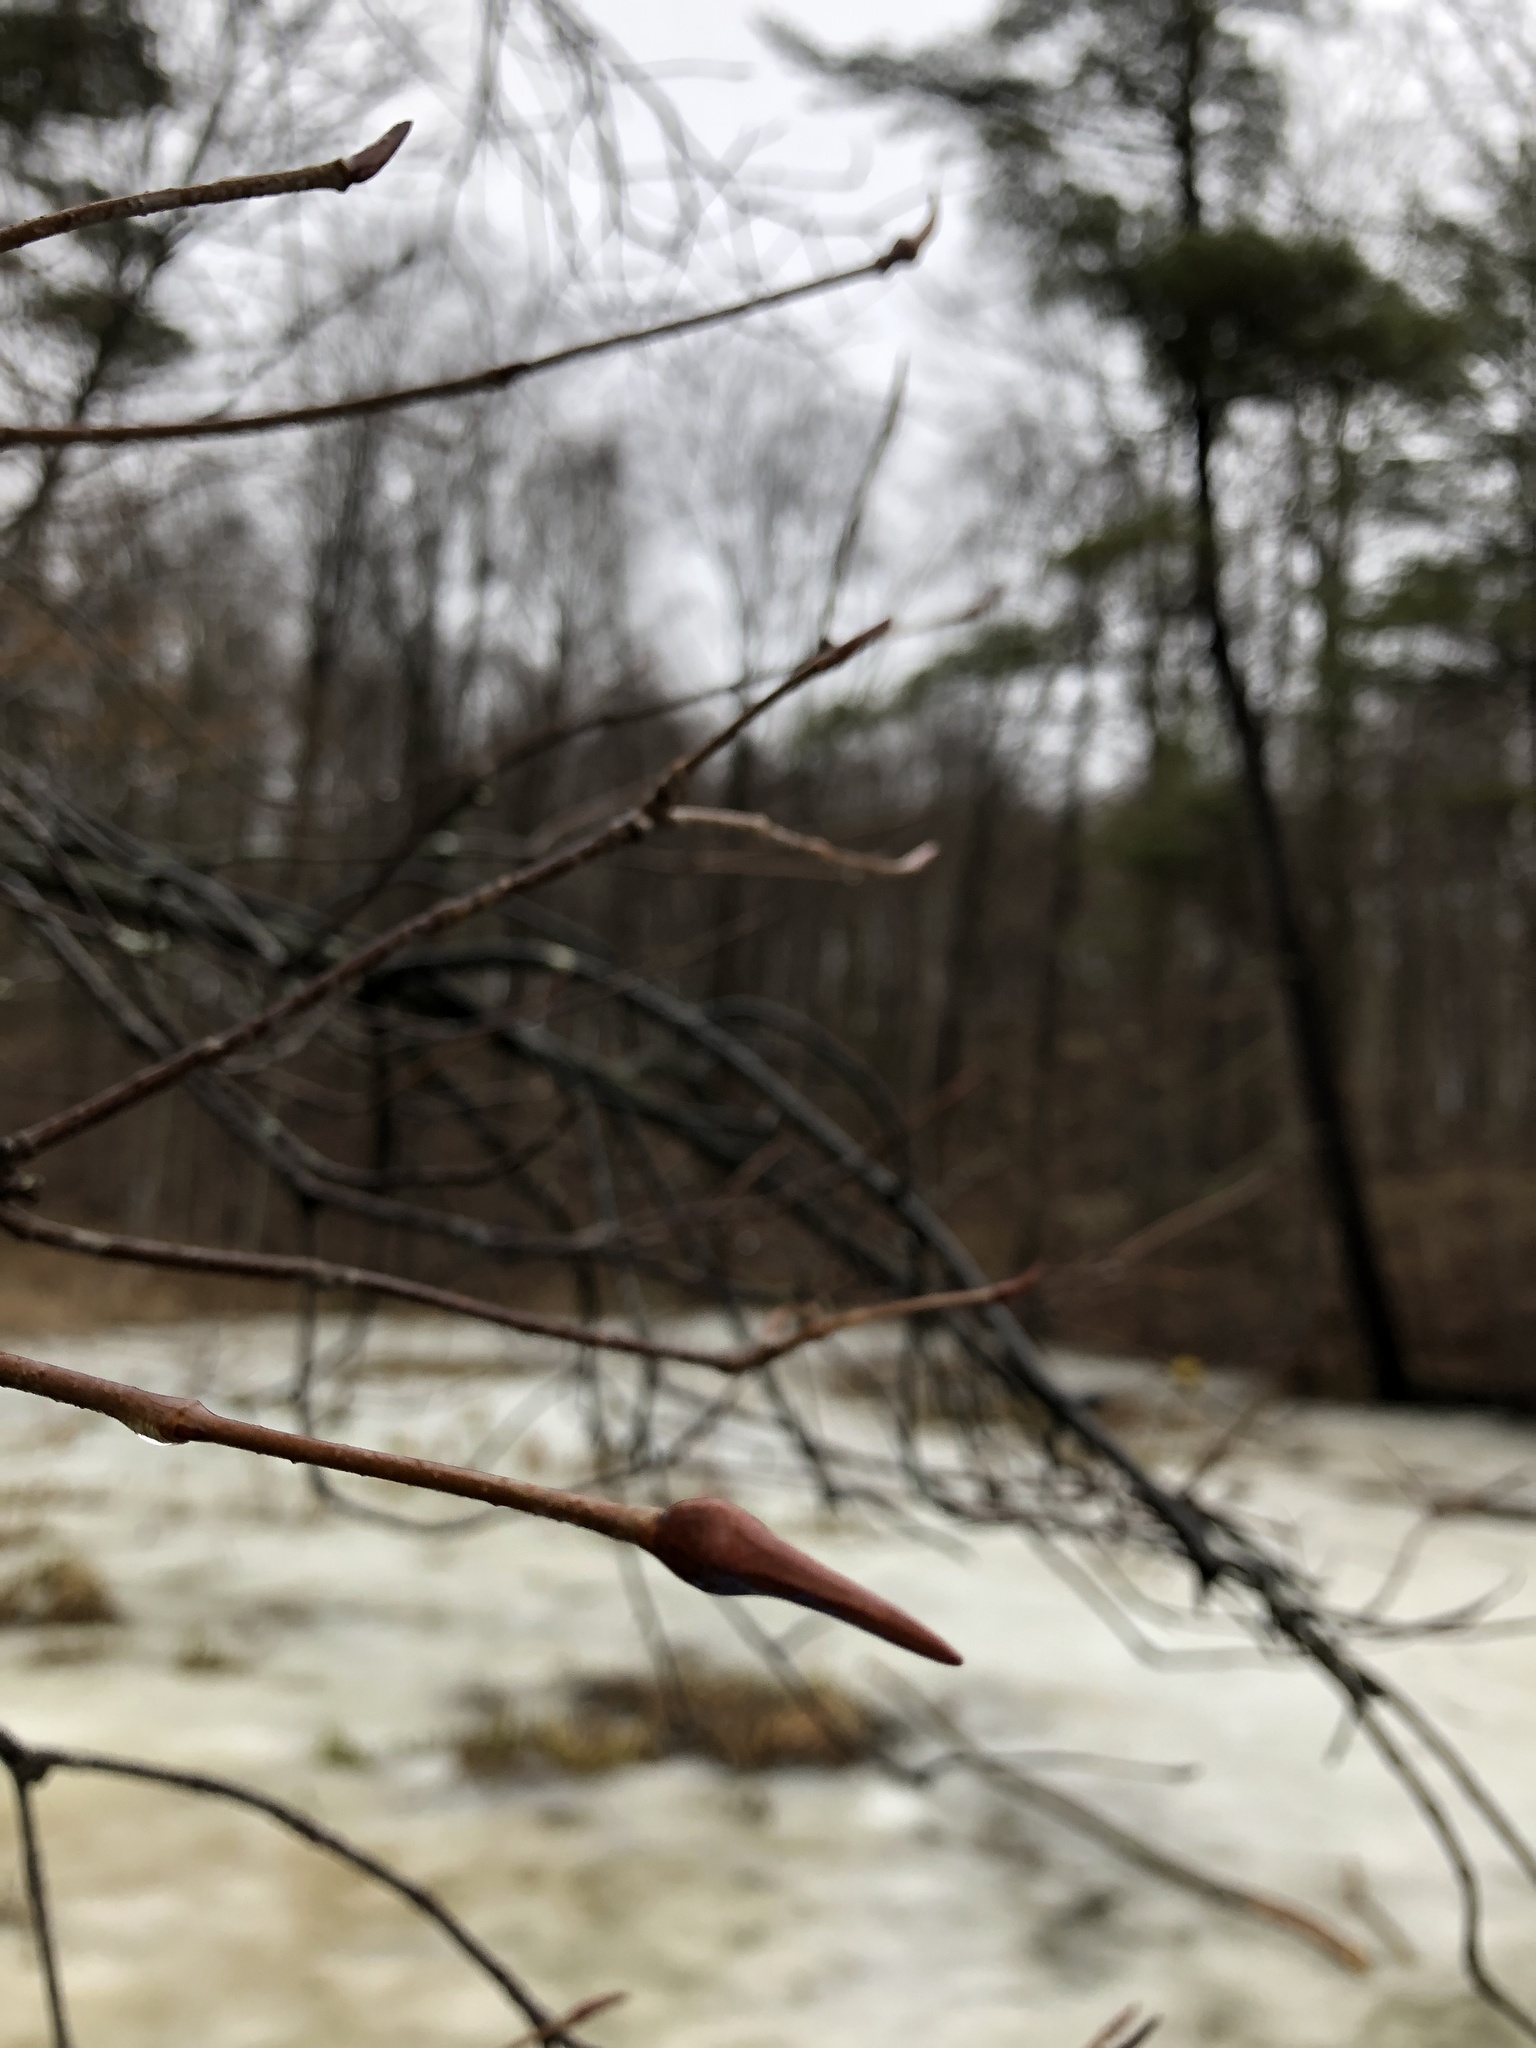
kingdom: Plantae
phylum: Tracheophyta
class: Magnoliopsida
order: Dipsacales
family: Viburnaceae
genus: Viburnum
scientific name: Viburnum lentago
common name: Black haw
